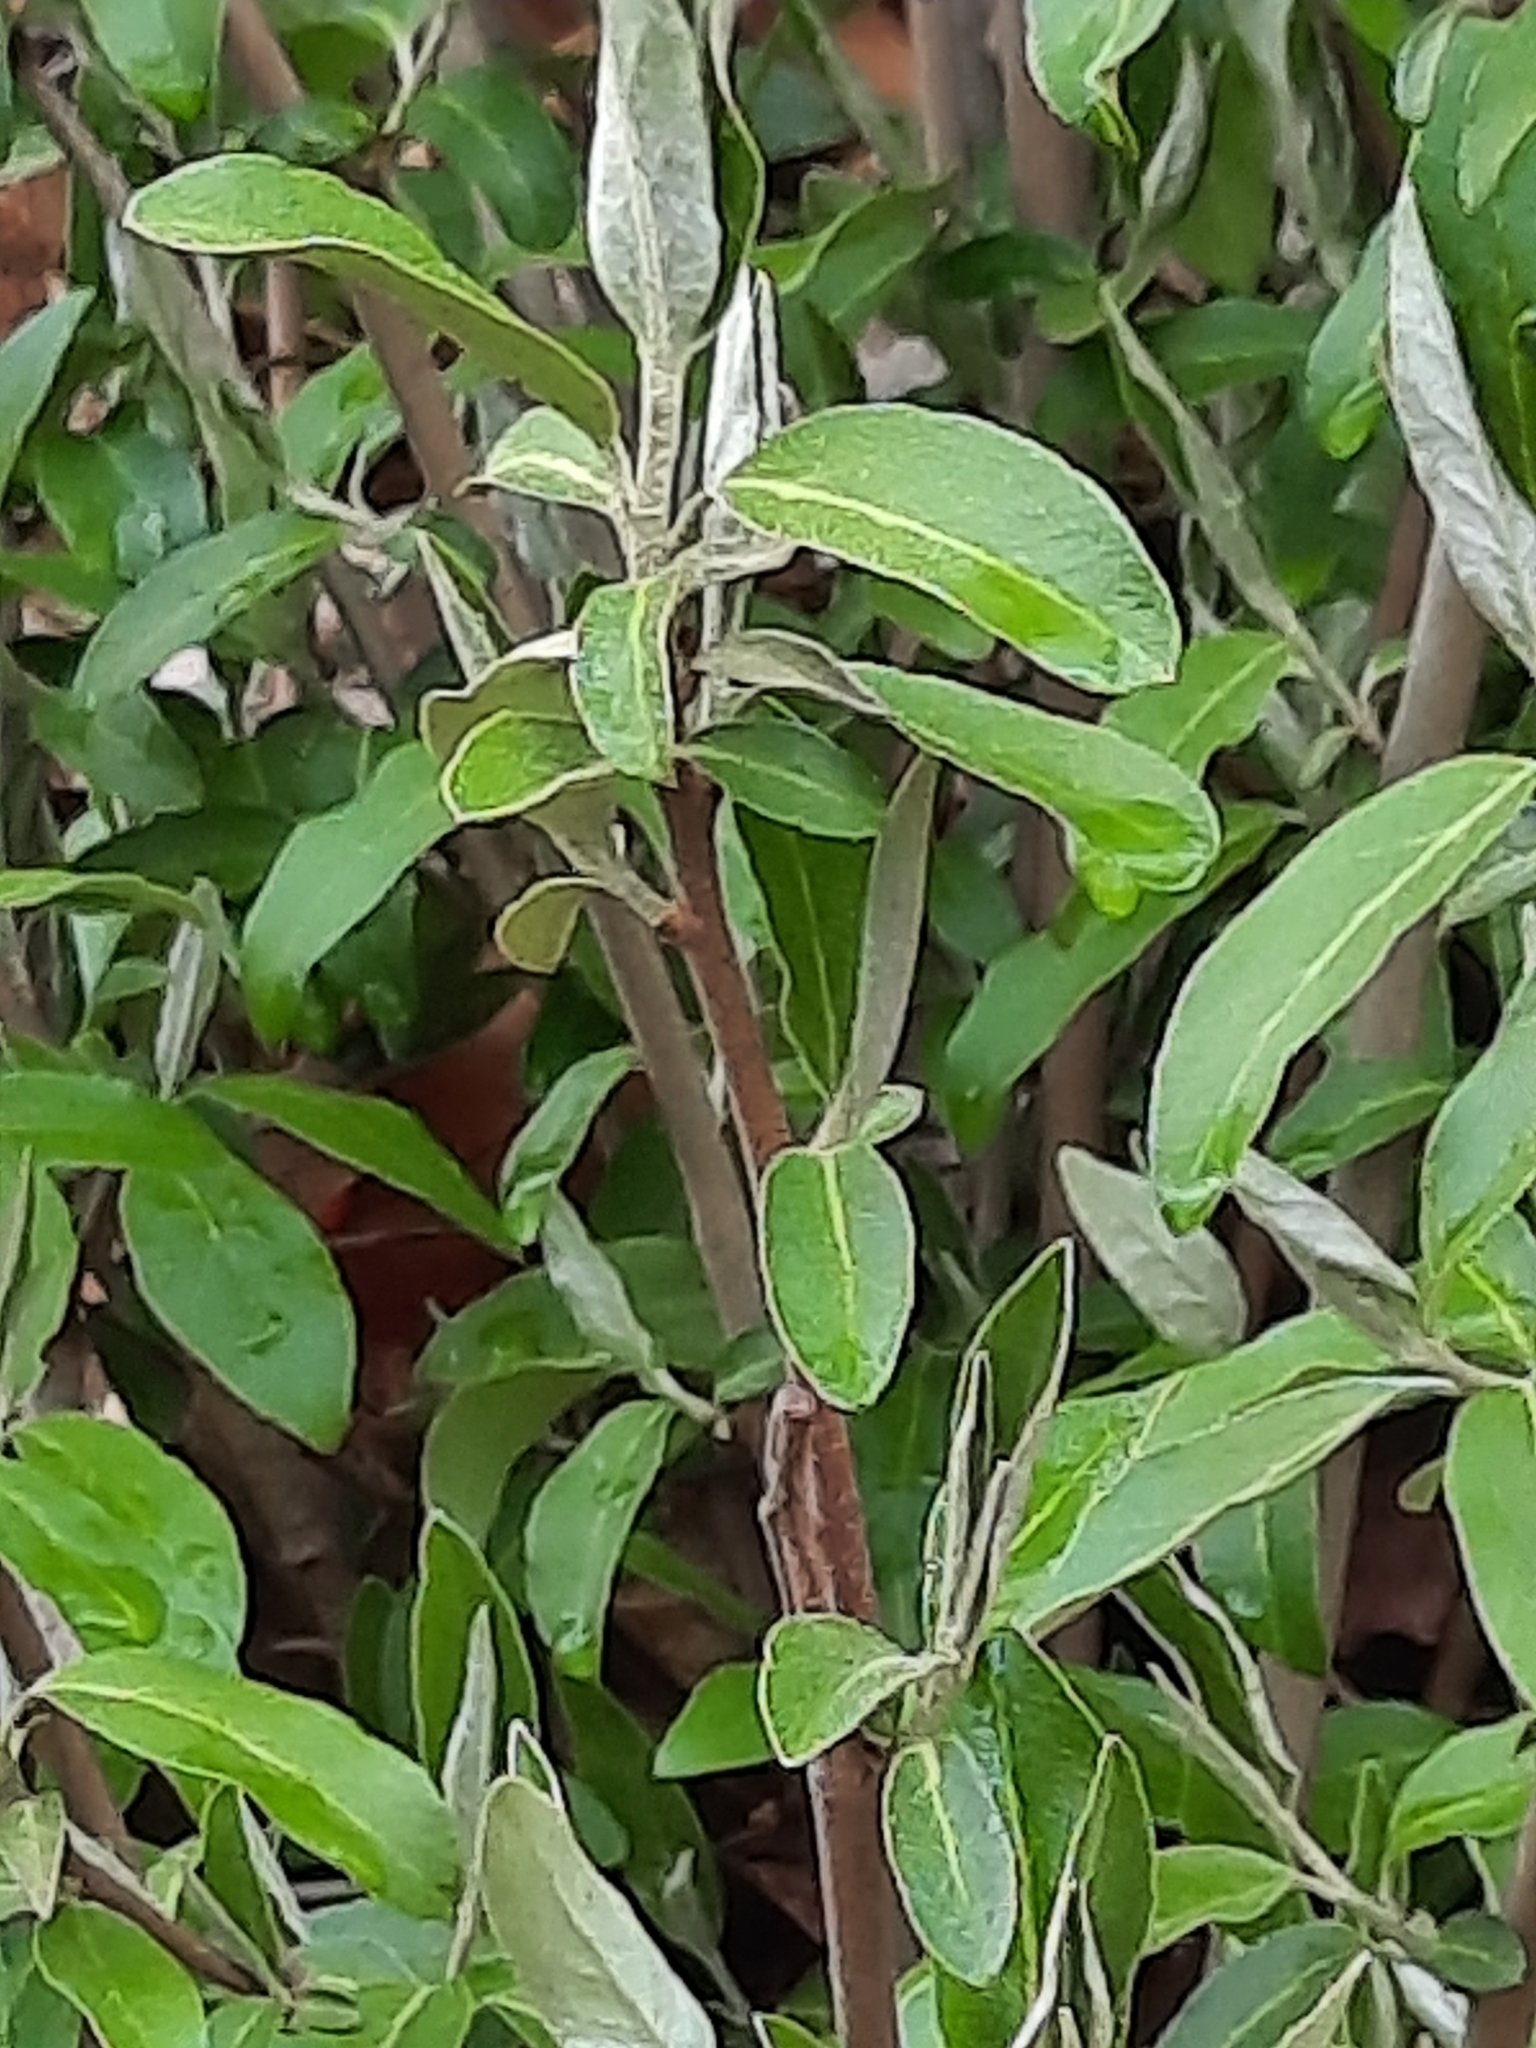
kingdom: Plantae
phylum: Tracheophyta
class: Magnoliopsida
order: Rosales
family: Elaeagnaceae
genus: Elaeagnus
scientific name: Elaeagnus umbellata
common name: Autumn olive
